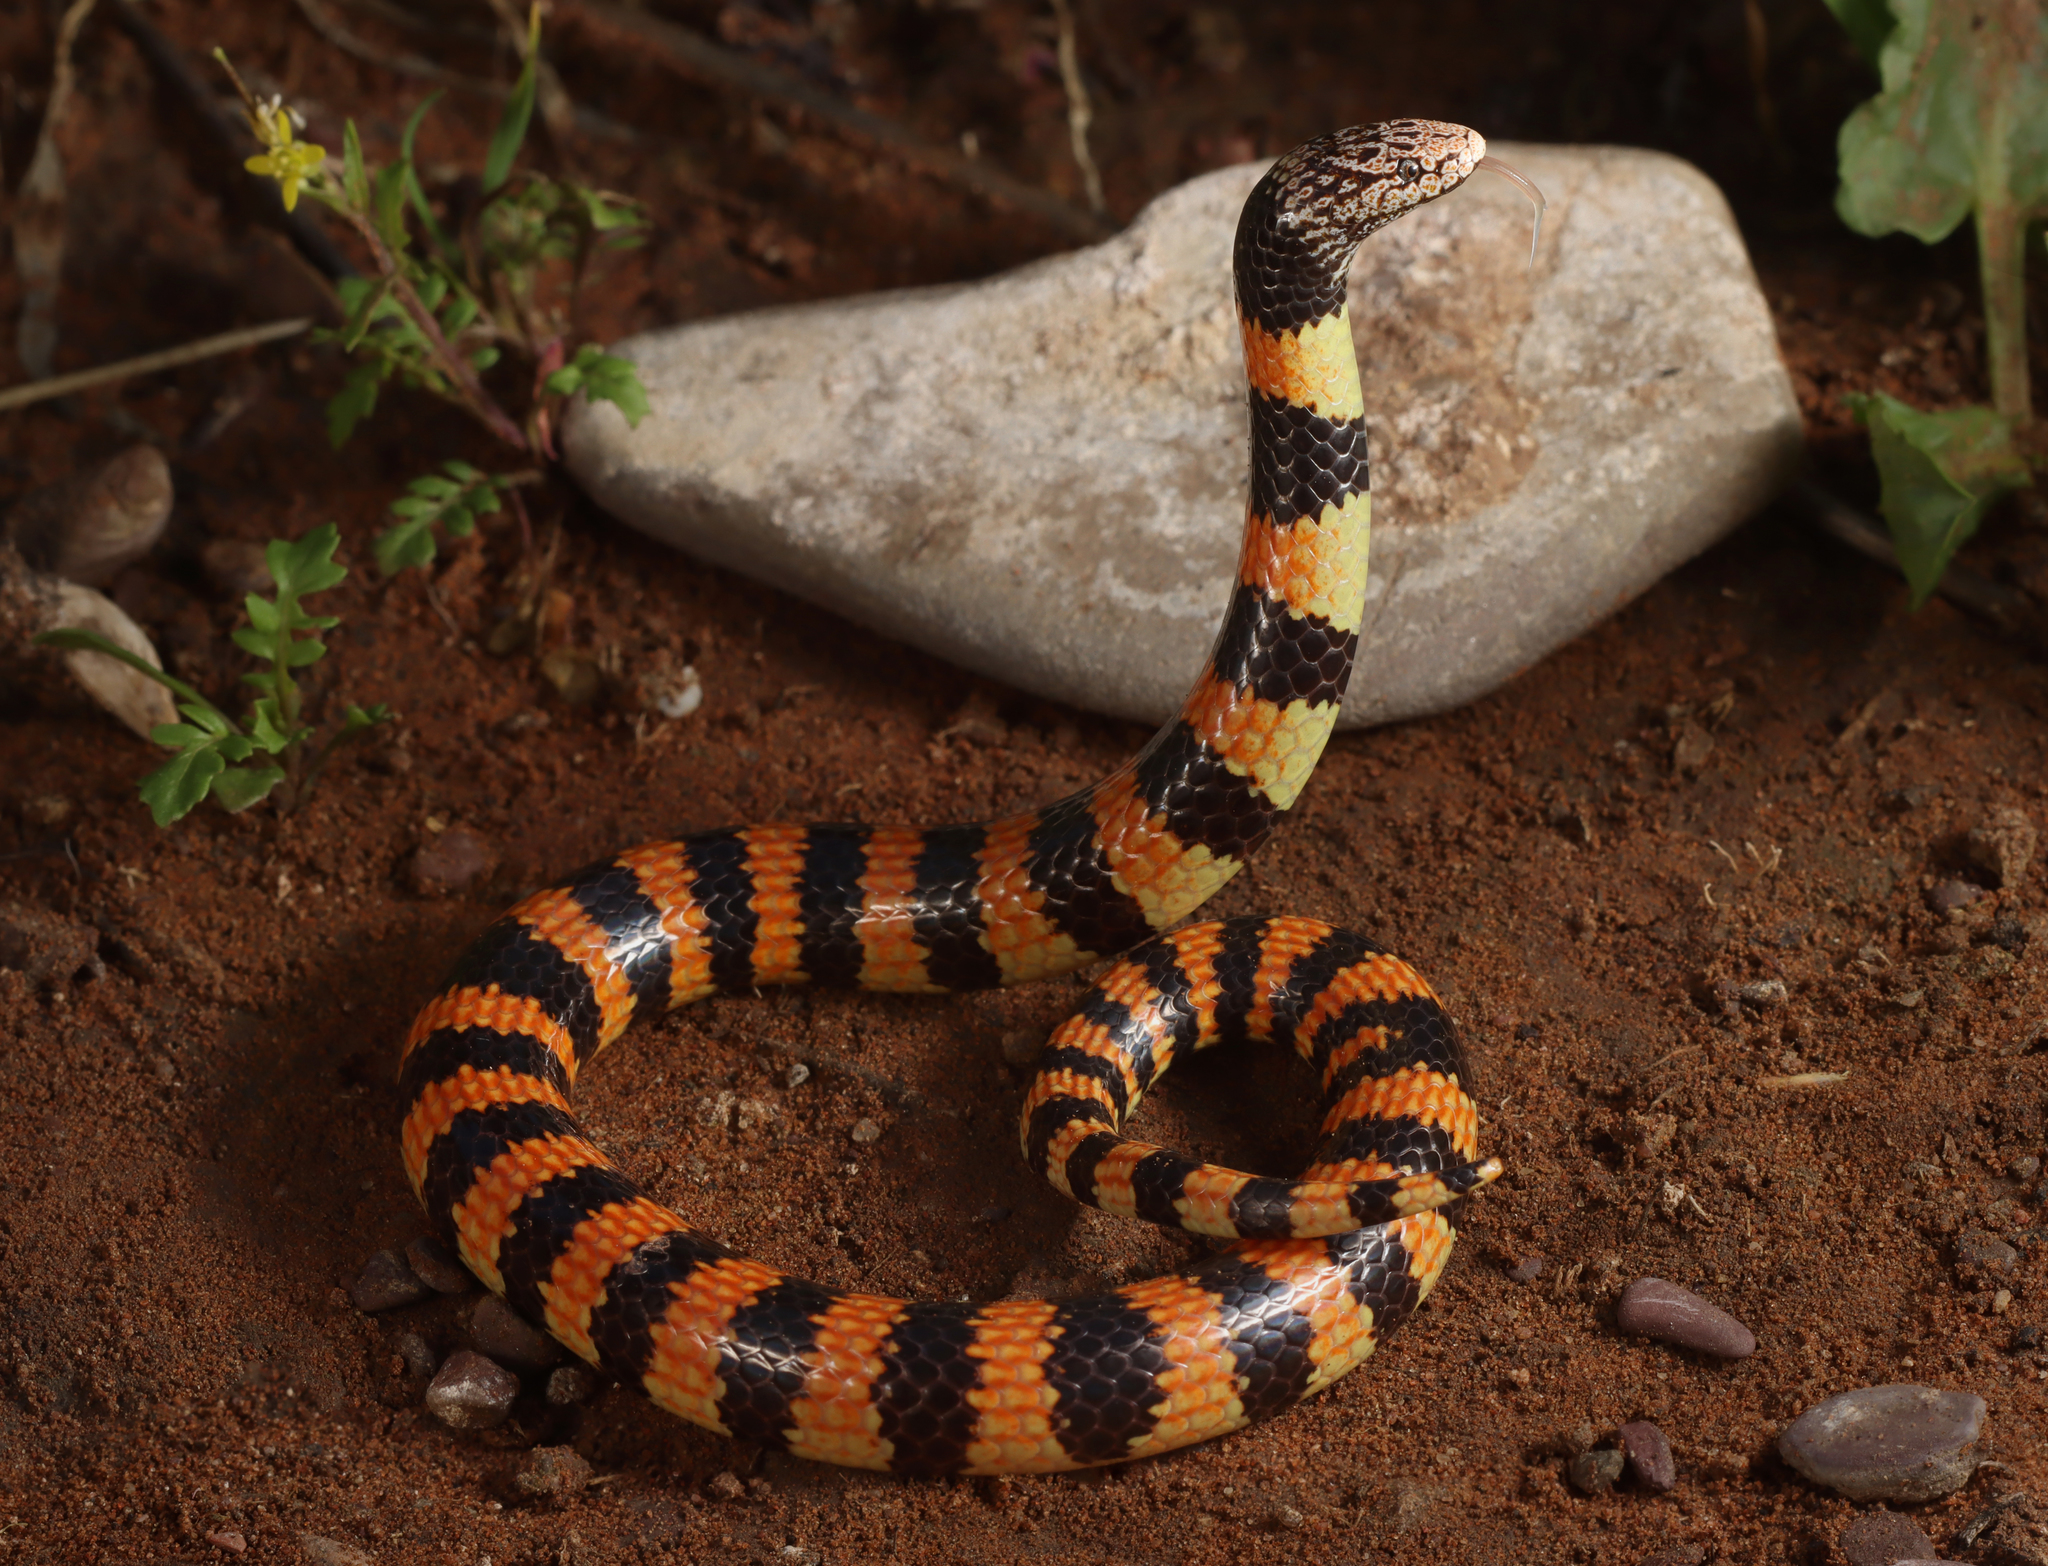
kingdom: Animalia
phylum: Chordata
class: Squamata
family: Elapidae
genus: Simoselaps
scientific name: Simoselaps bertholdi
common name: Desert banded snake
